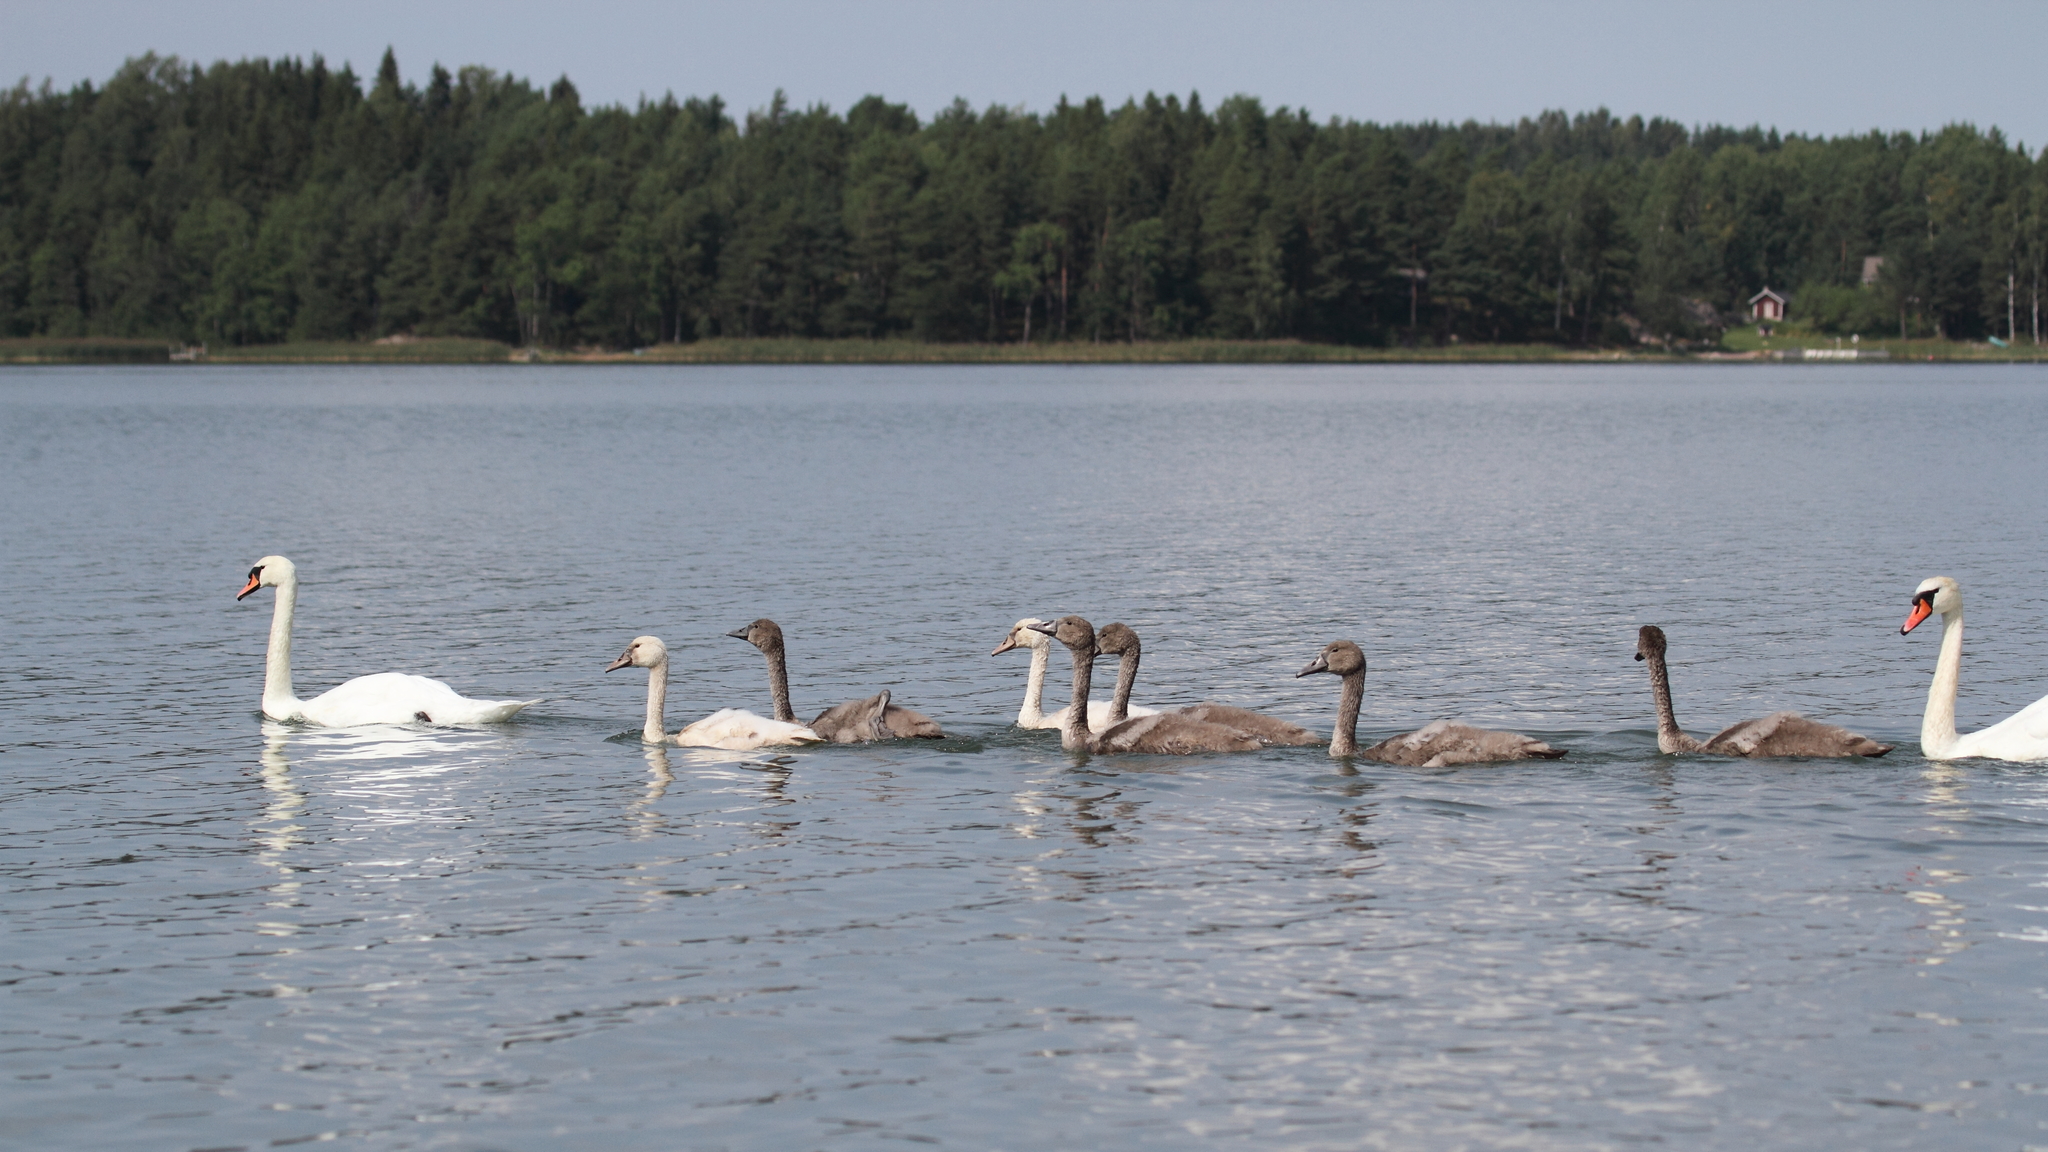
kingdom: Animalia
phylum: Chordata
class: Aves
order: Anseriformes
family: Anatidae
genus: Cygnus
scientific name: Cygnus olor
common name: Mute swan
